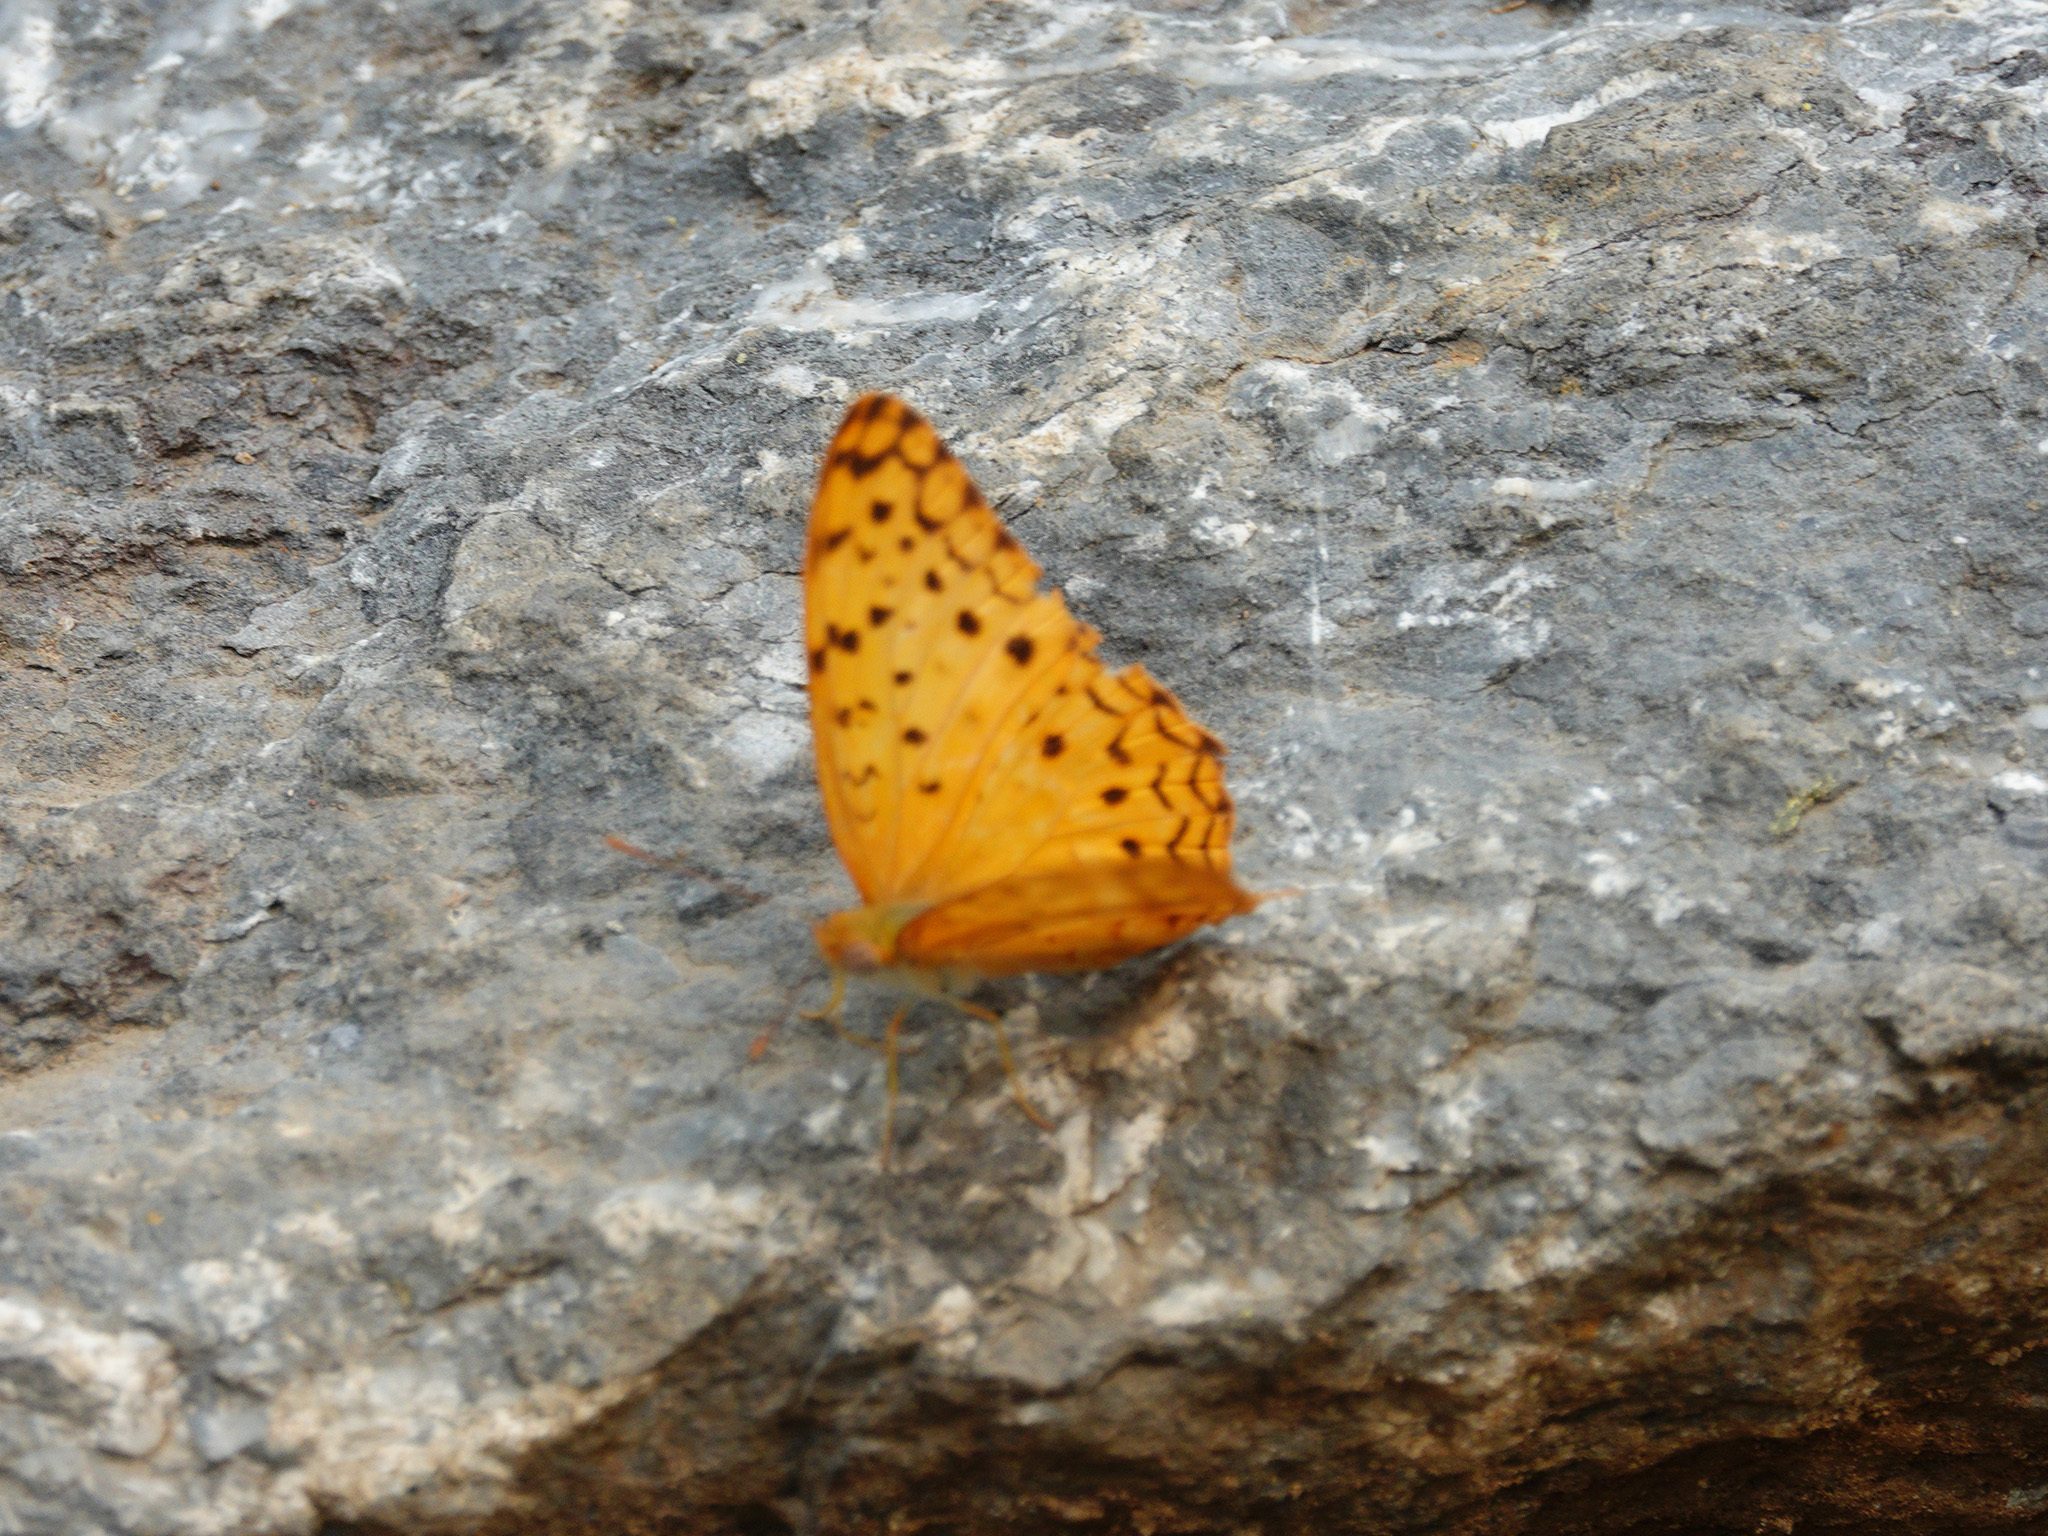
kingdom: Animalia
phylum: Arthropoda
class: Insecta
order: Lepidoptera
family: Nymphalidae
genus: Phalanta
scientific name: Phalanta phalantha
